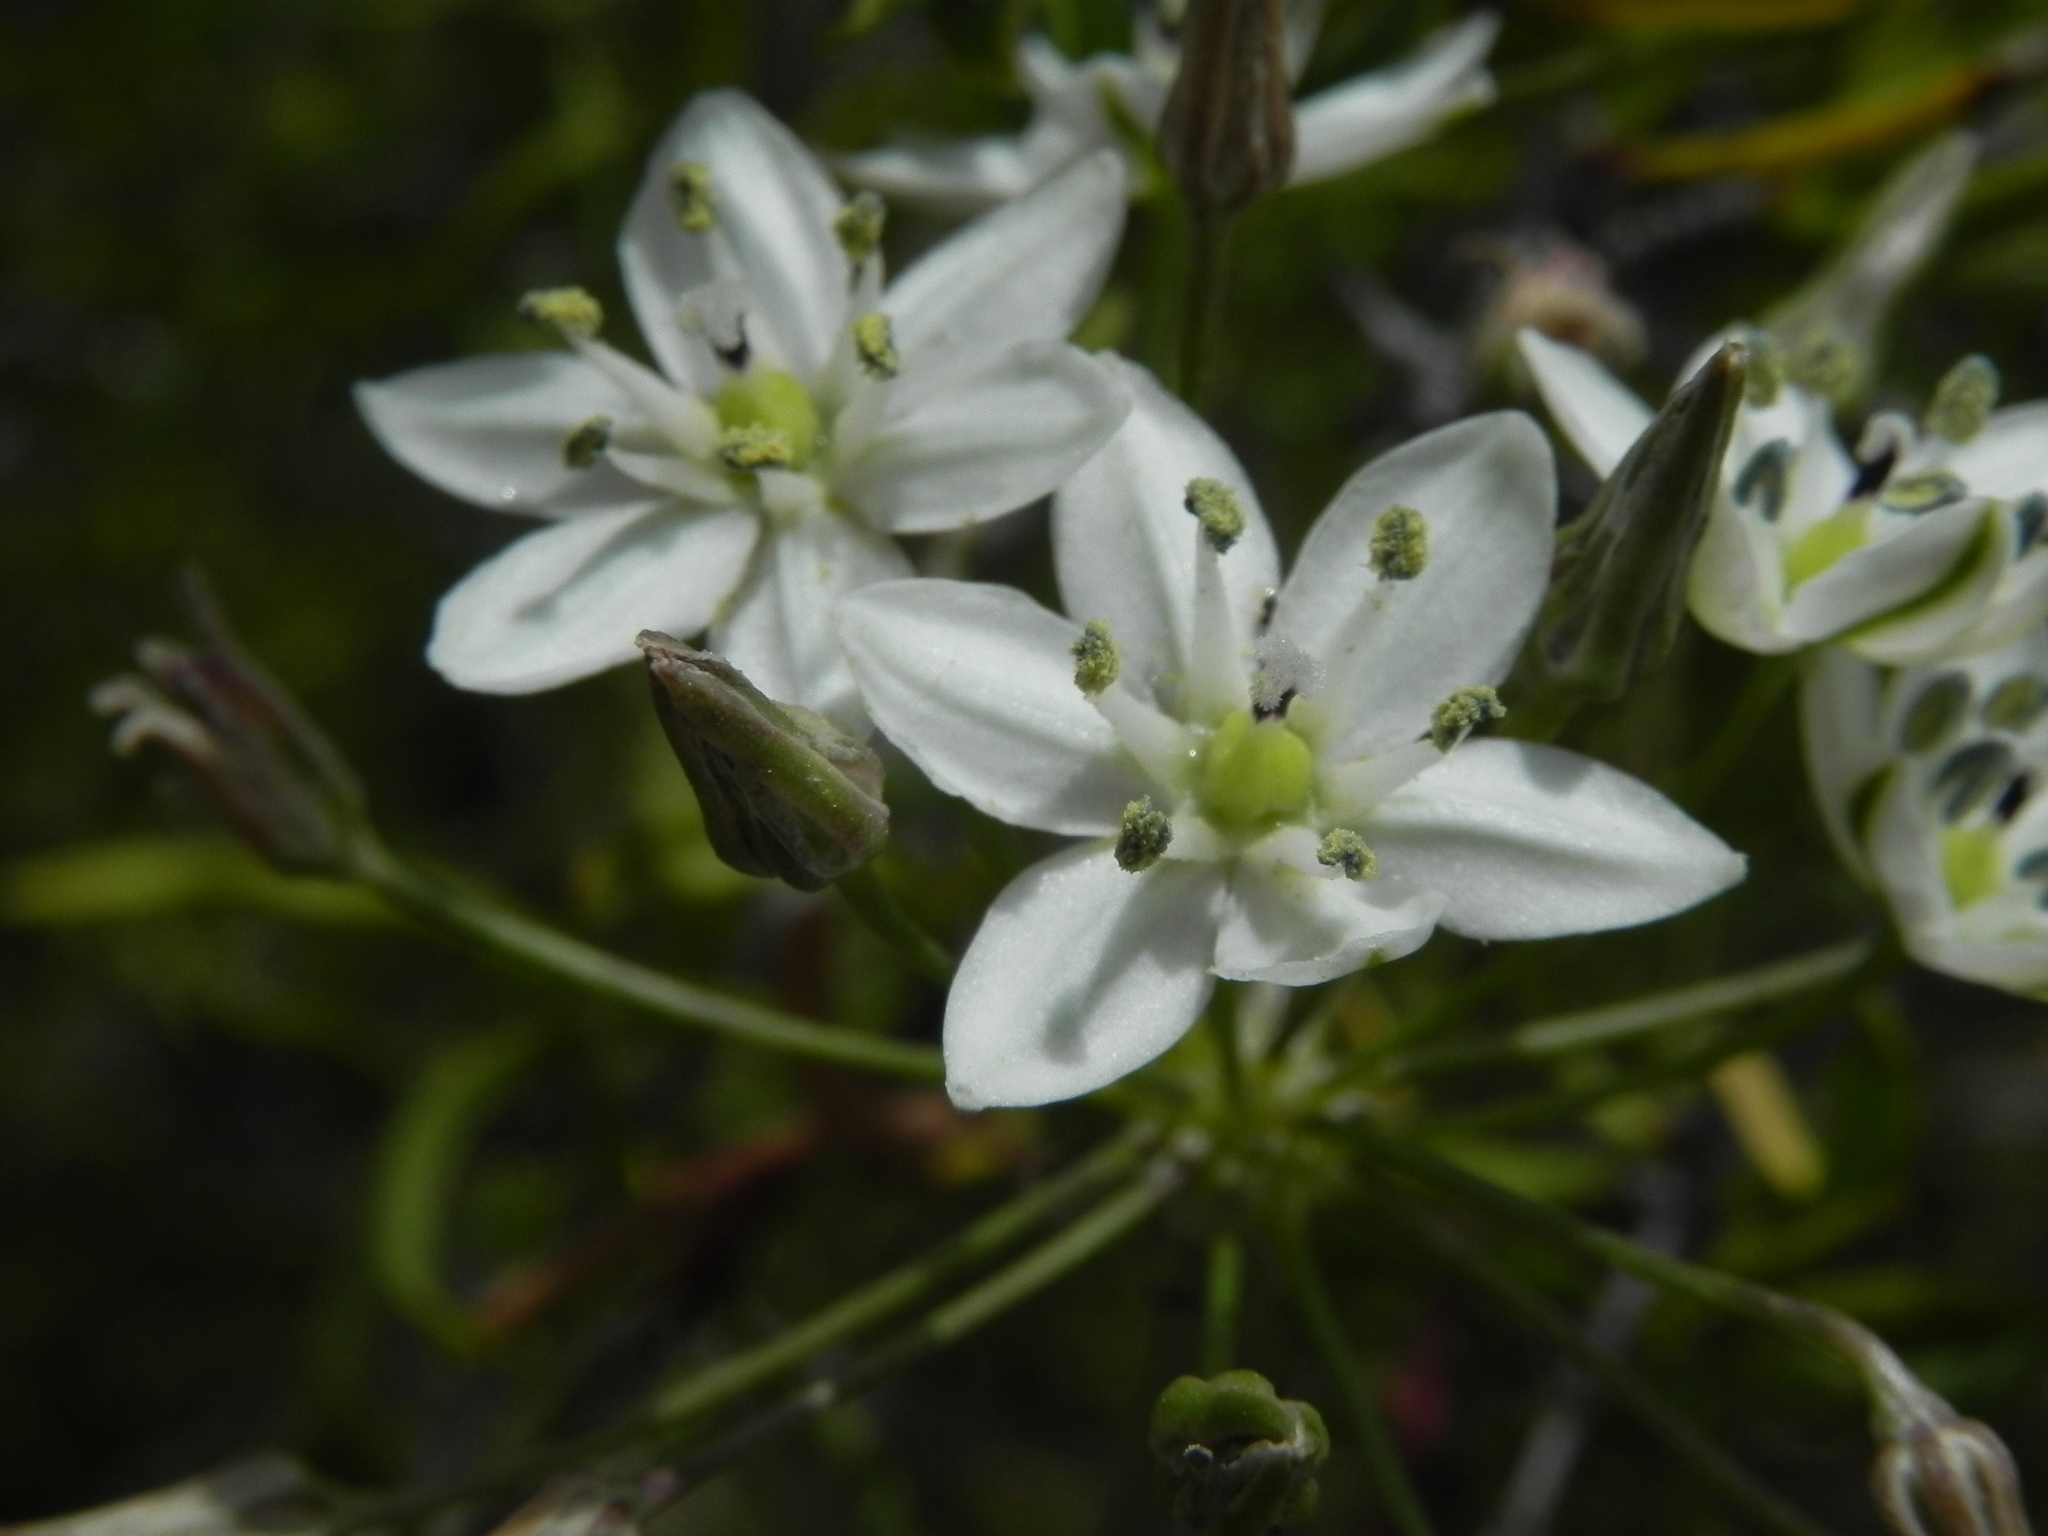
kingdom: Plantae
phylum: Tracheophyta
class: Liliopsida
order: Asparagales
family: Asparagaceae
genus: Muilla
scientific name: Muilla maritima
